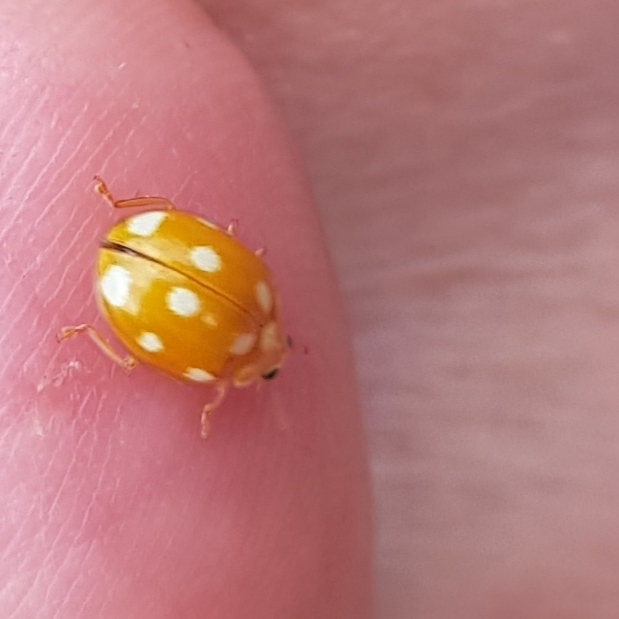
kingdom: Animalia
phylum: Arthropoda
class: Insecta
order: Coleoptera
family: Coccinellidae
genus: Calvia
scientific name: Calvia decemguttata
